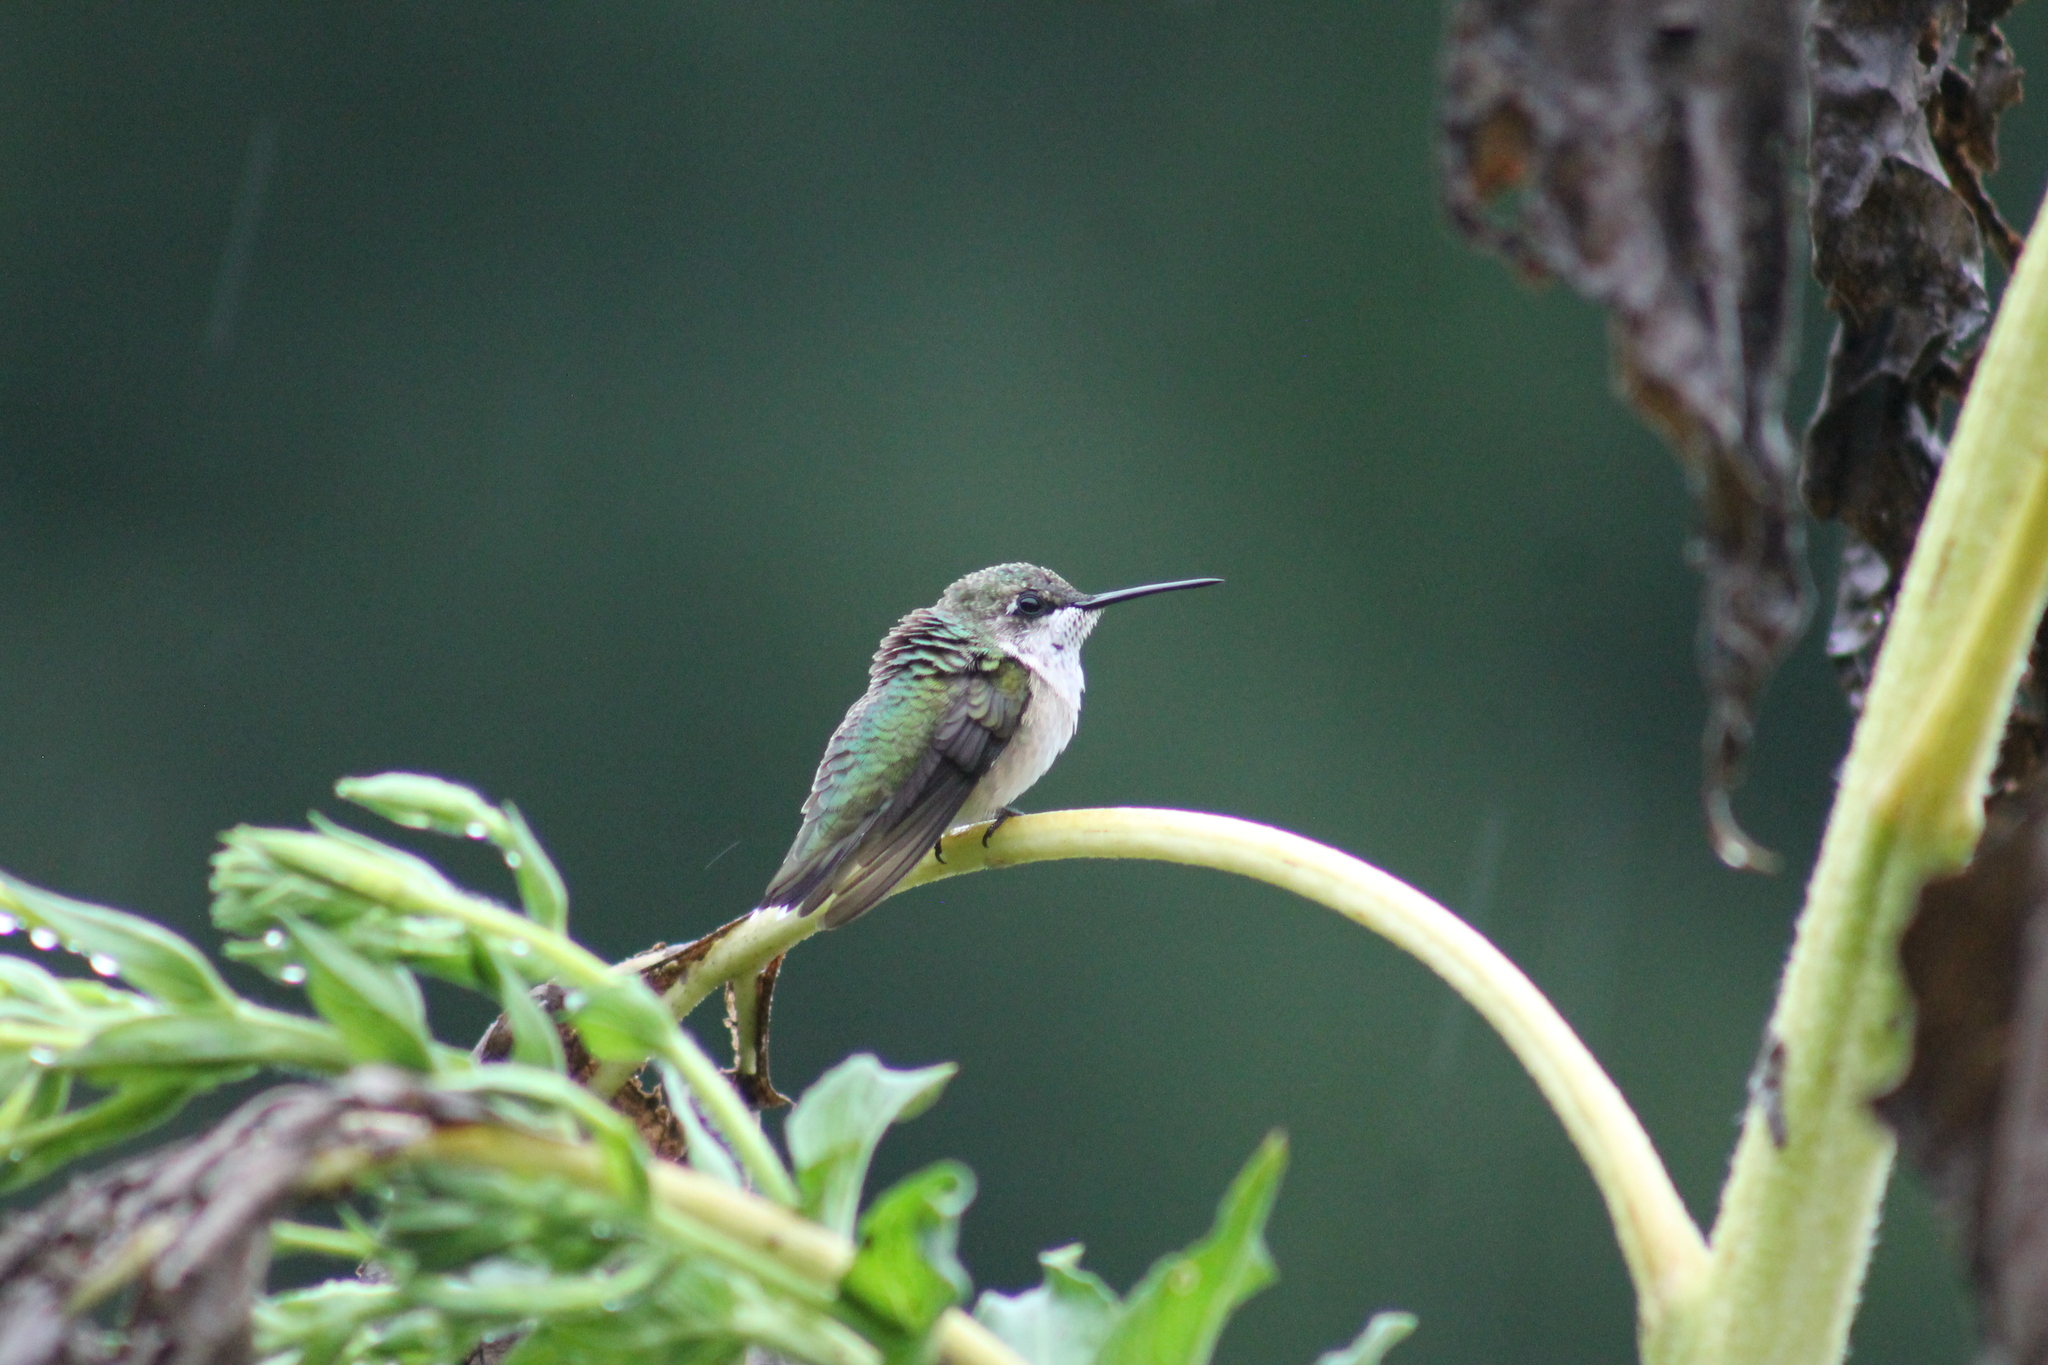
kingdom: Animalia
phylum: Chordata
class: Aves
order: Apodiformes
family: Trochilidae
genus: Archilochus
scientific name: Archilochus colubris
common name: Ruby-throated hummingbird
